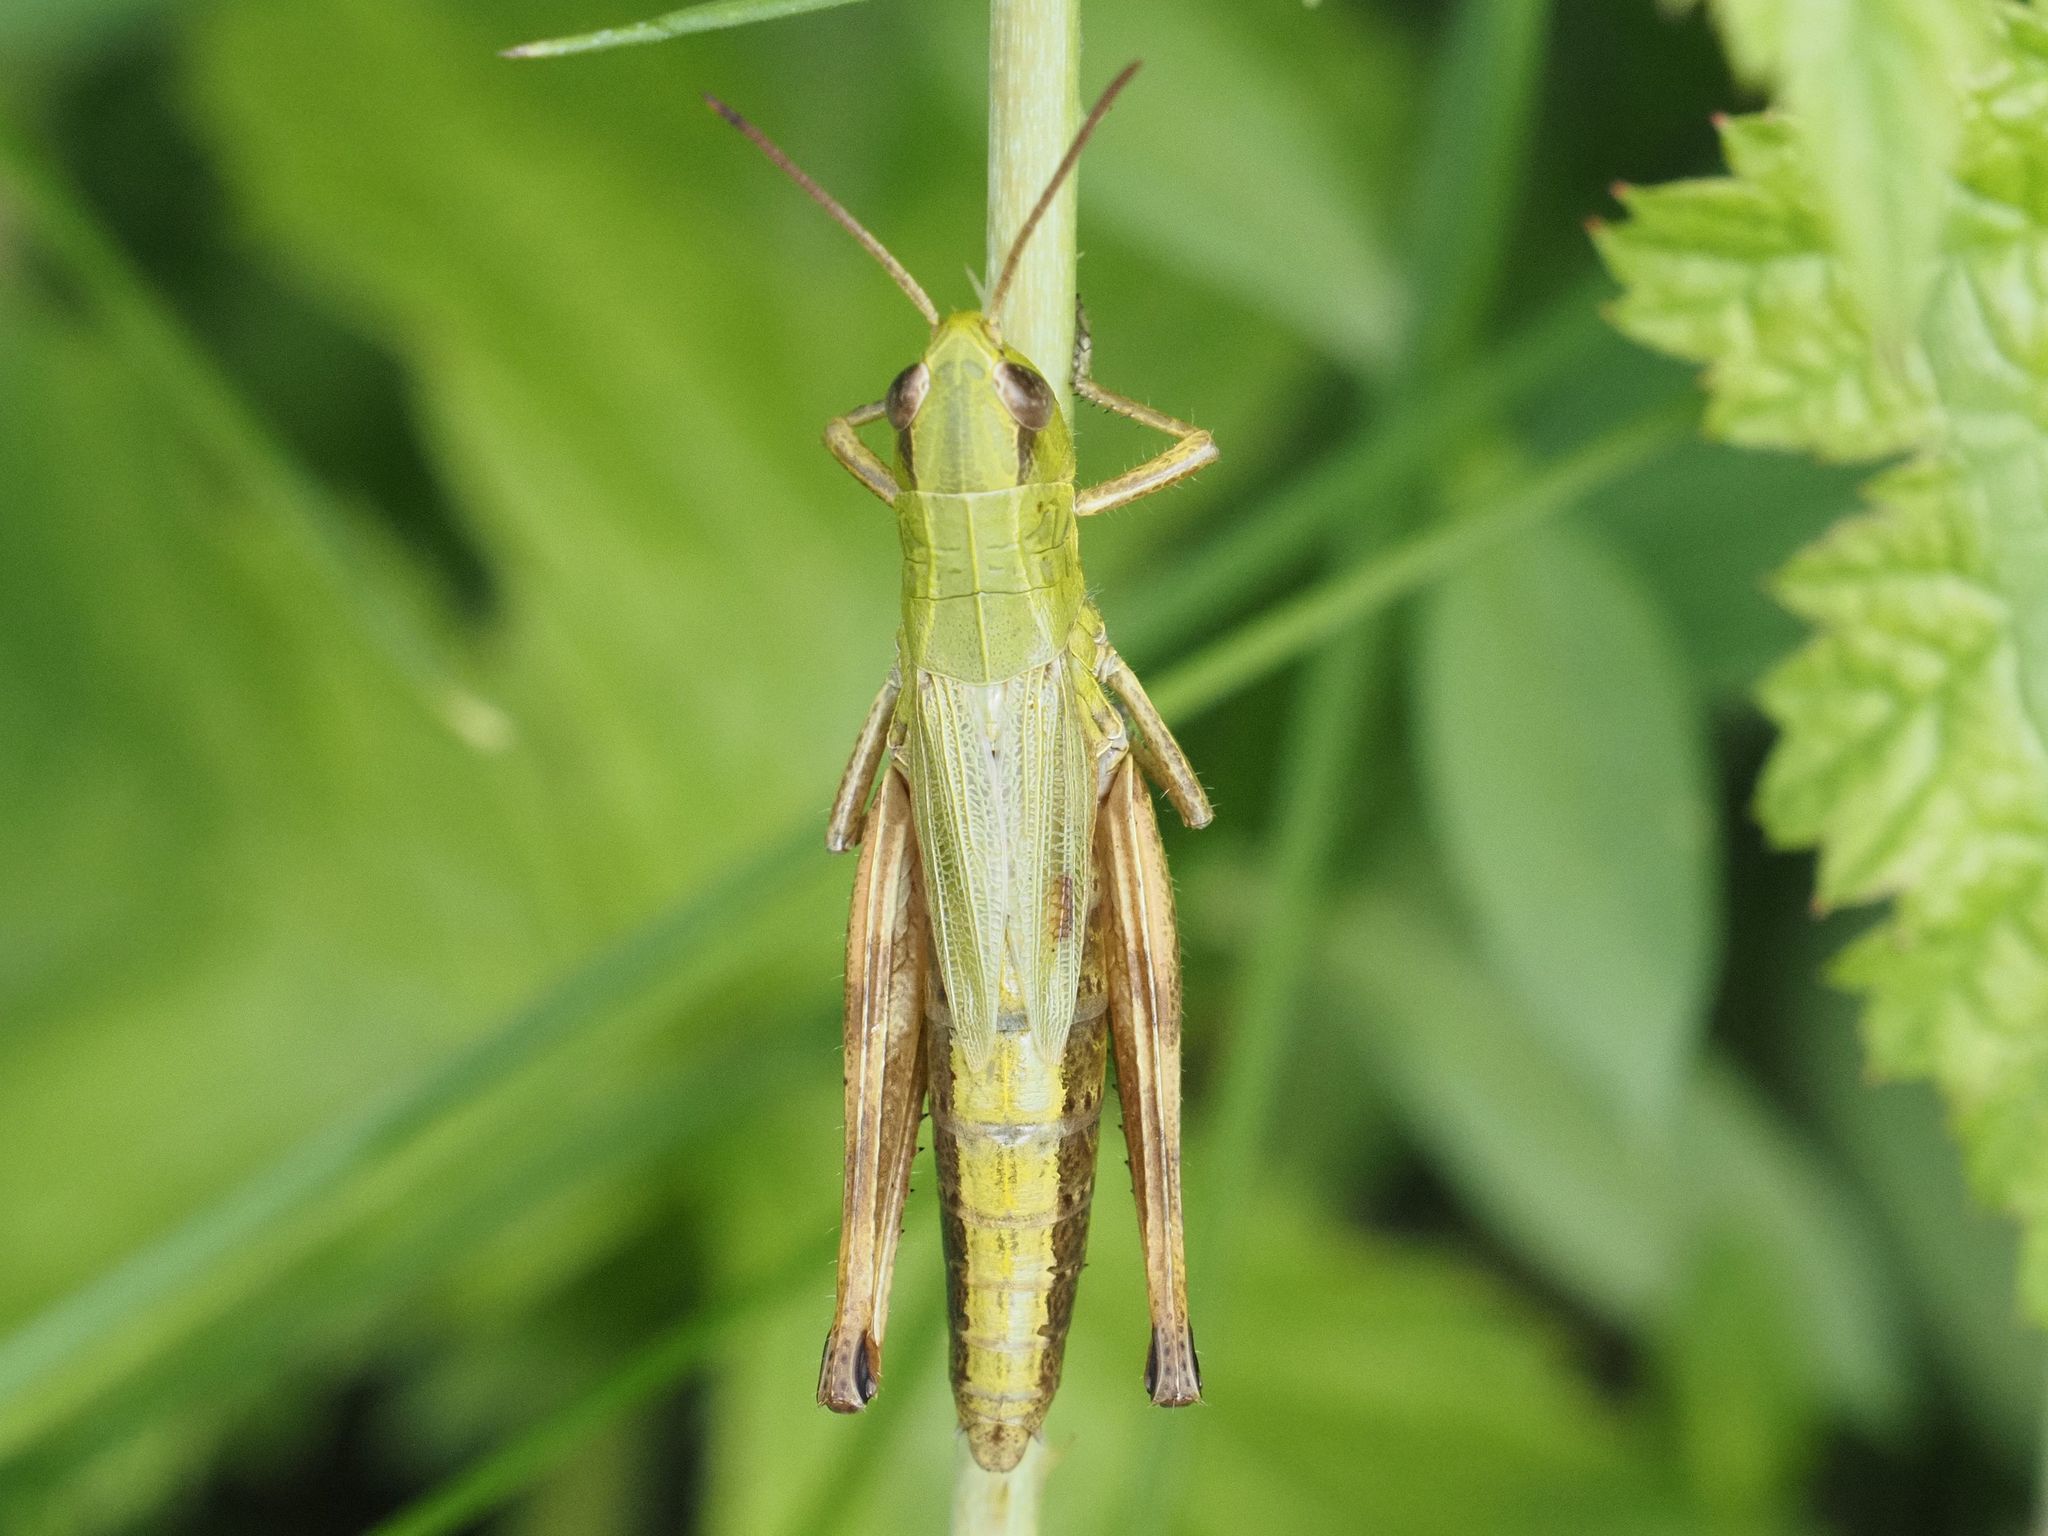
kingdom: Animalia
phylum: Arthropoda
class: Insecta
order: Orthoptera
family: Acrididae
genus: Pseudochorthippus
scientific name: Pseudochorthippus parallelus
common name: Meadow grasshopper
